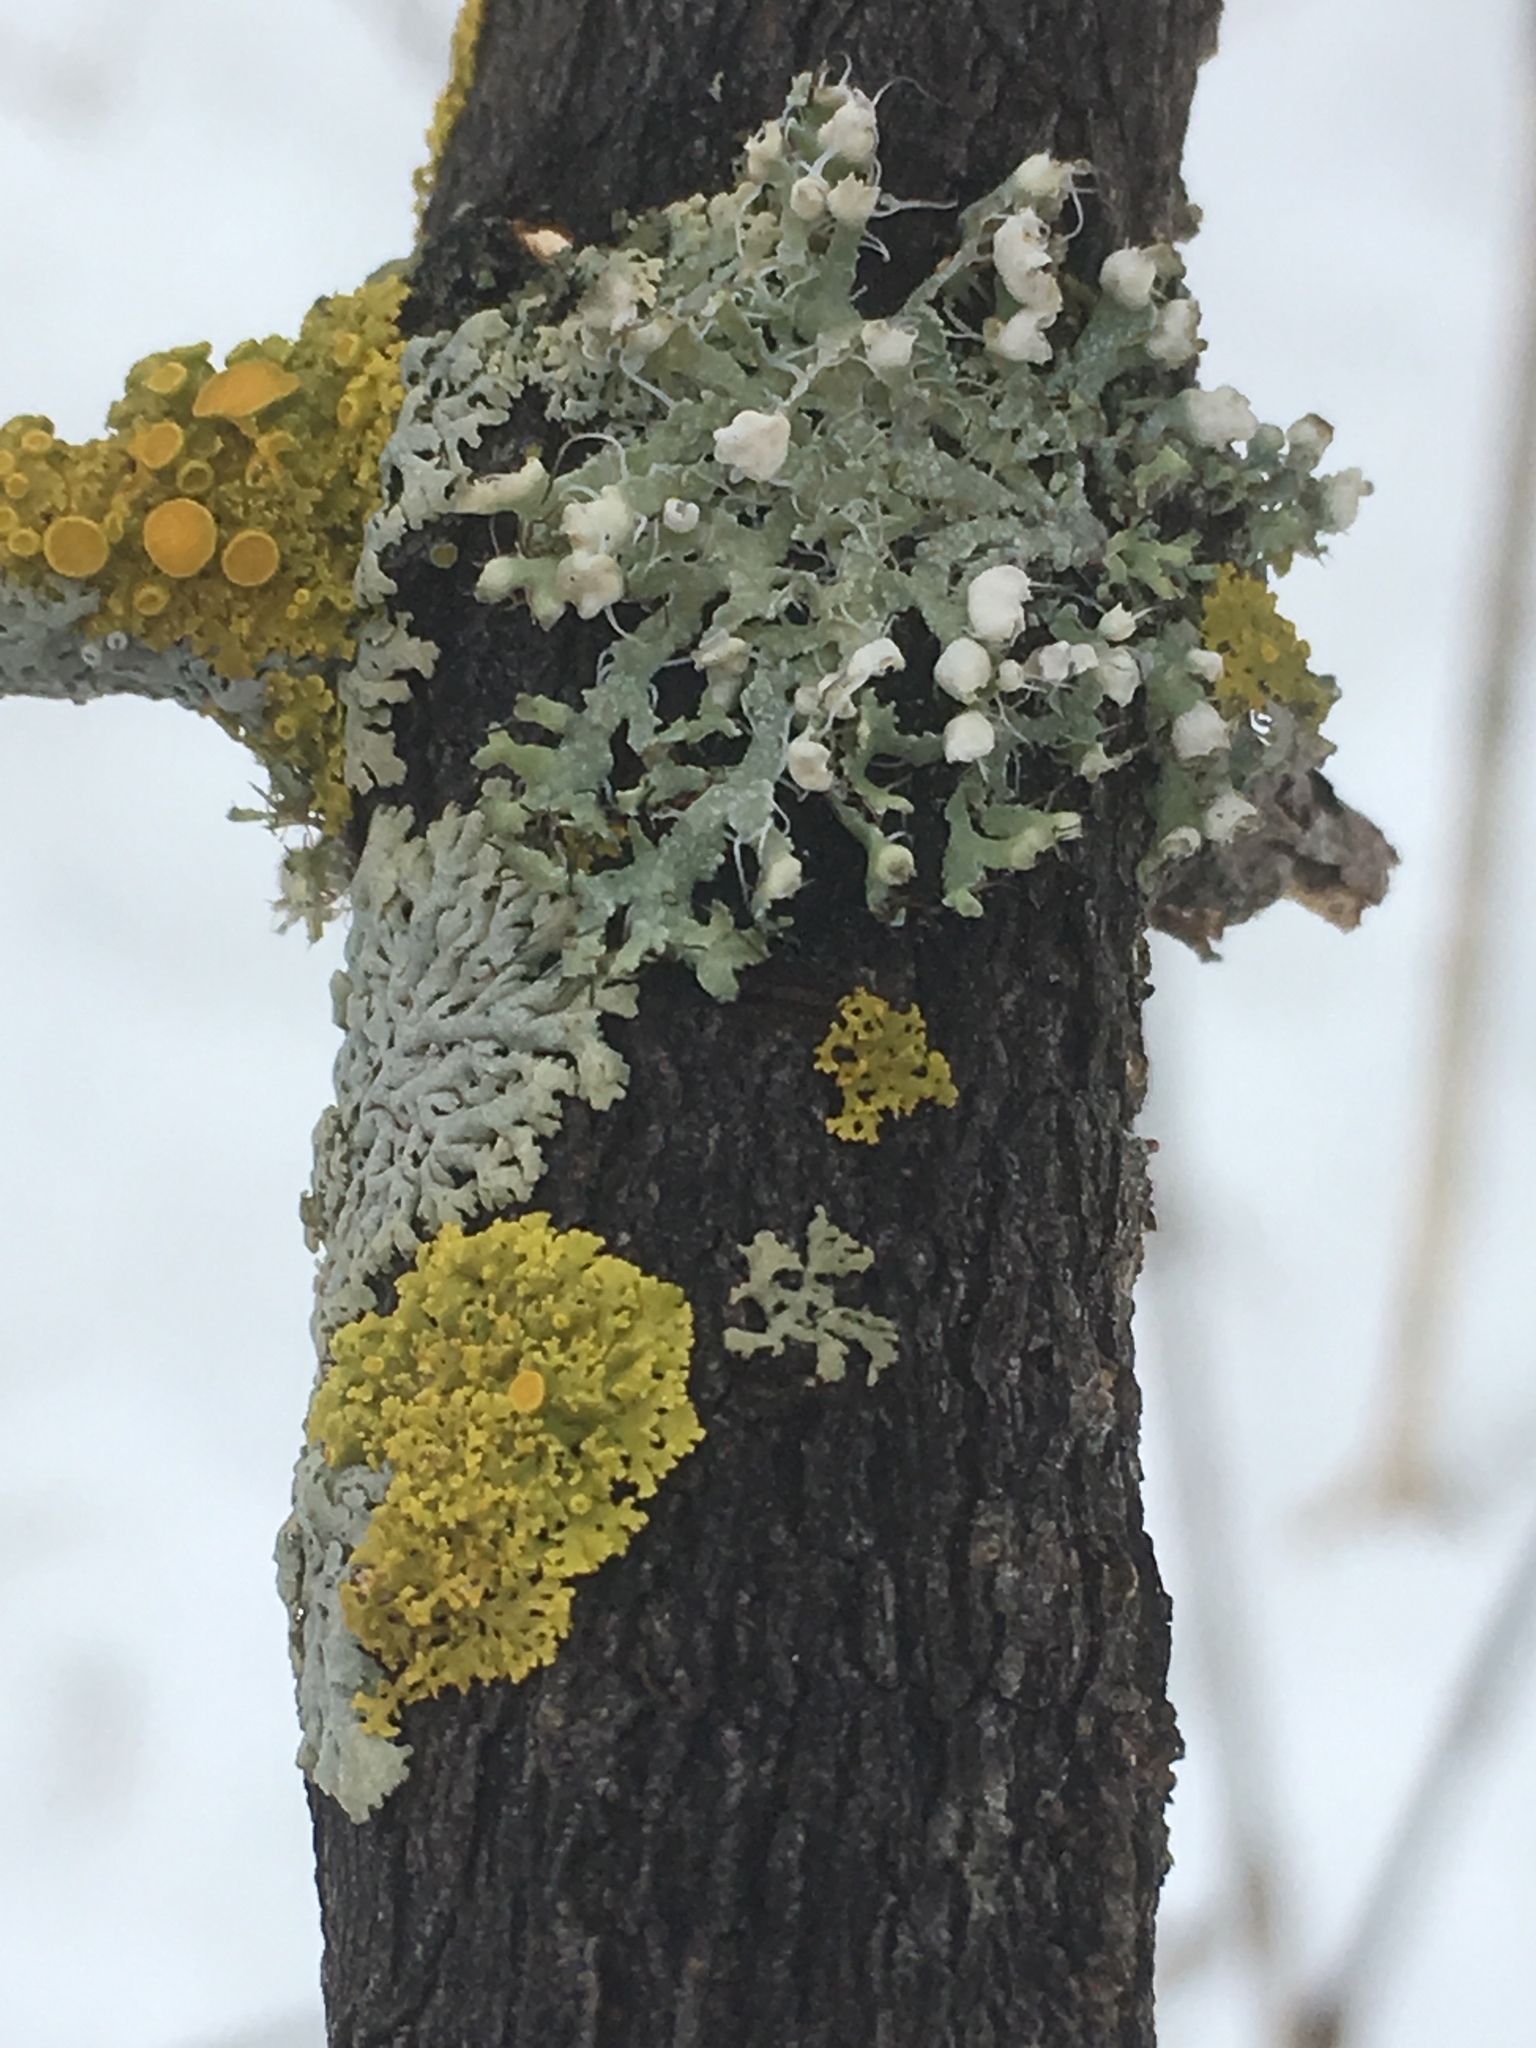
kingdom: Fungi
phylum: Ascomycota
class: Lecanoromycetes
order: Caliciales
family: Physciaceae
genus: Physcia
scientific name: Physcia adscendens
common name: Hooded rosette lichen
